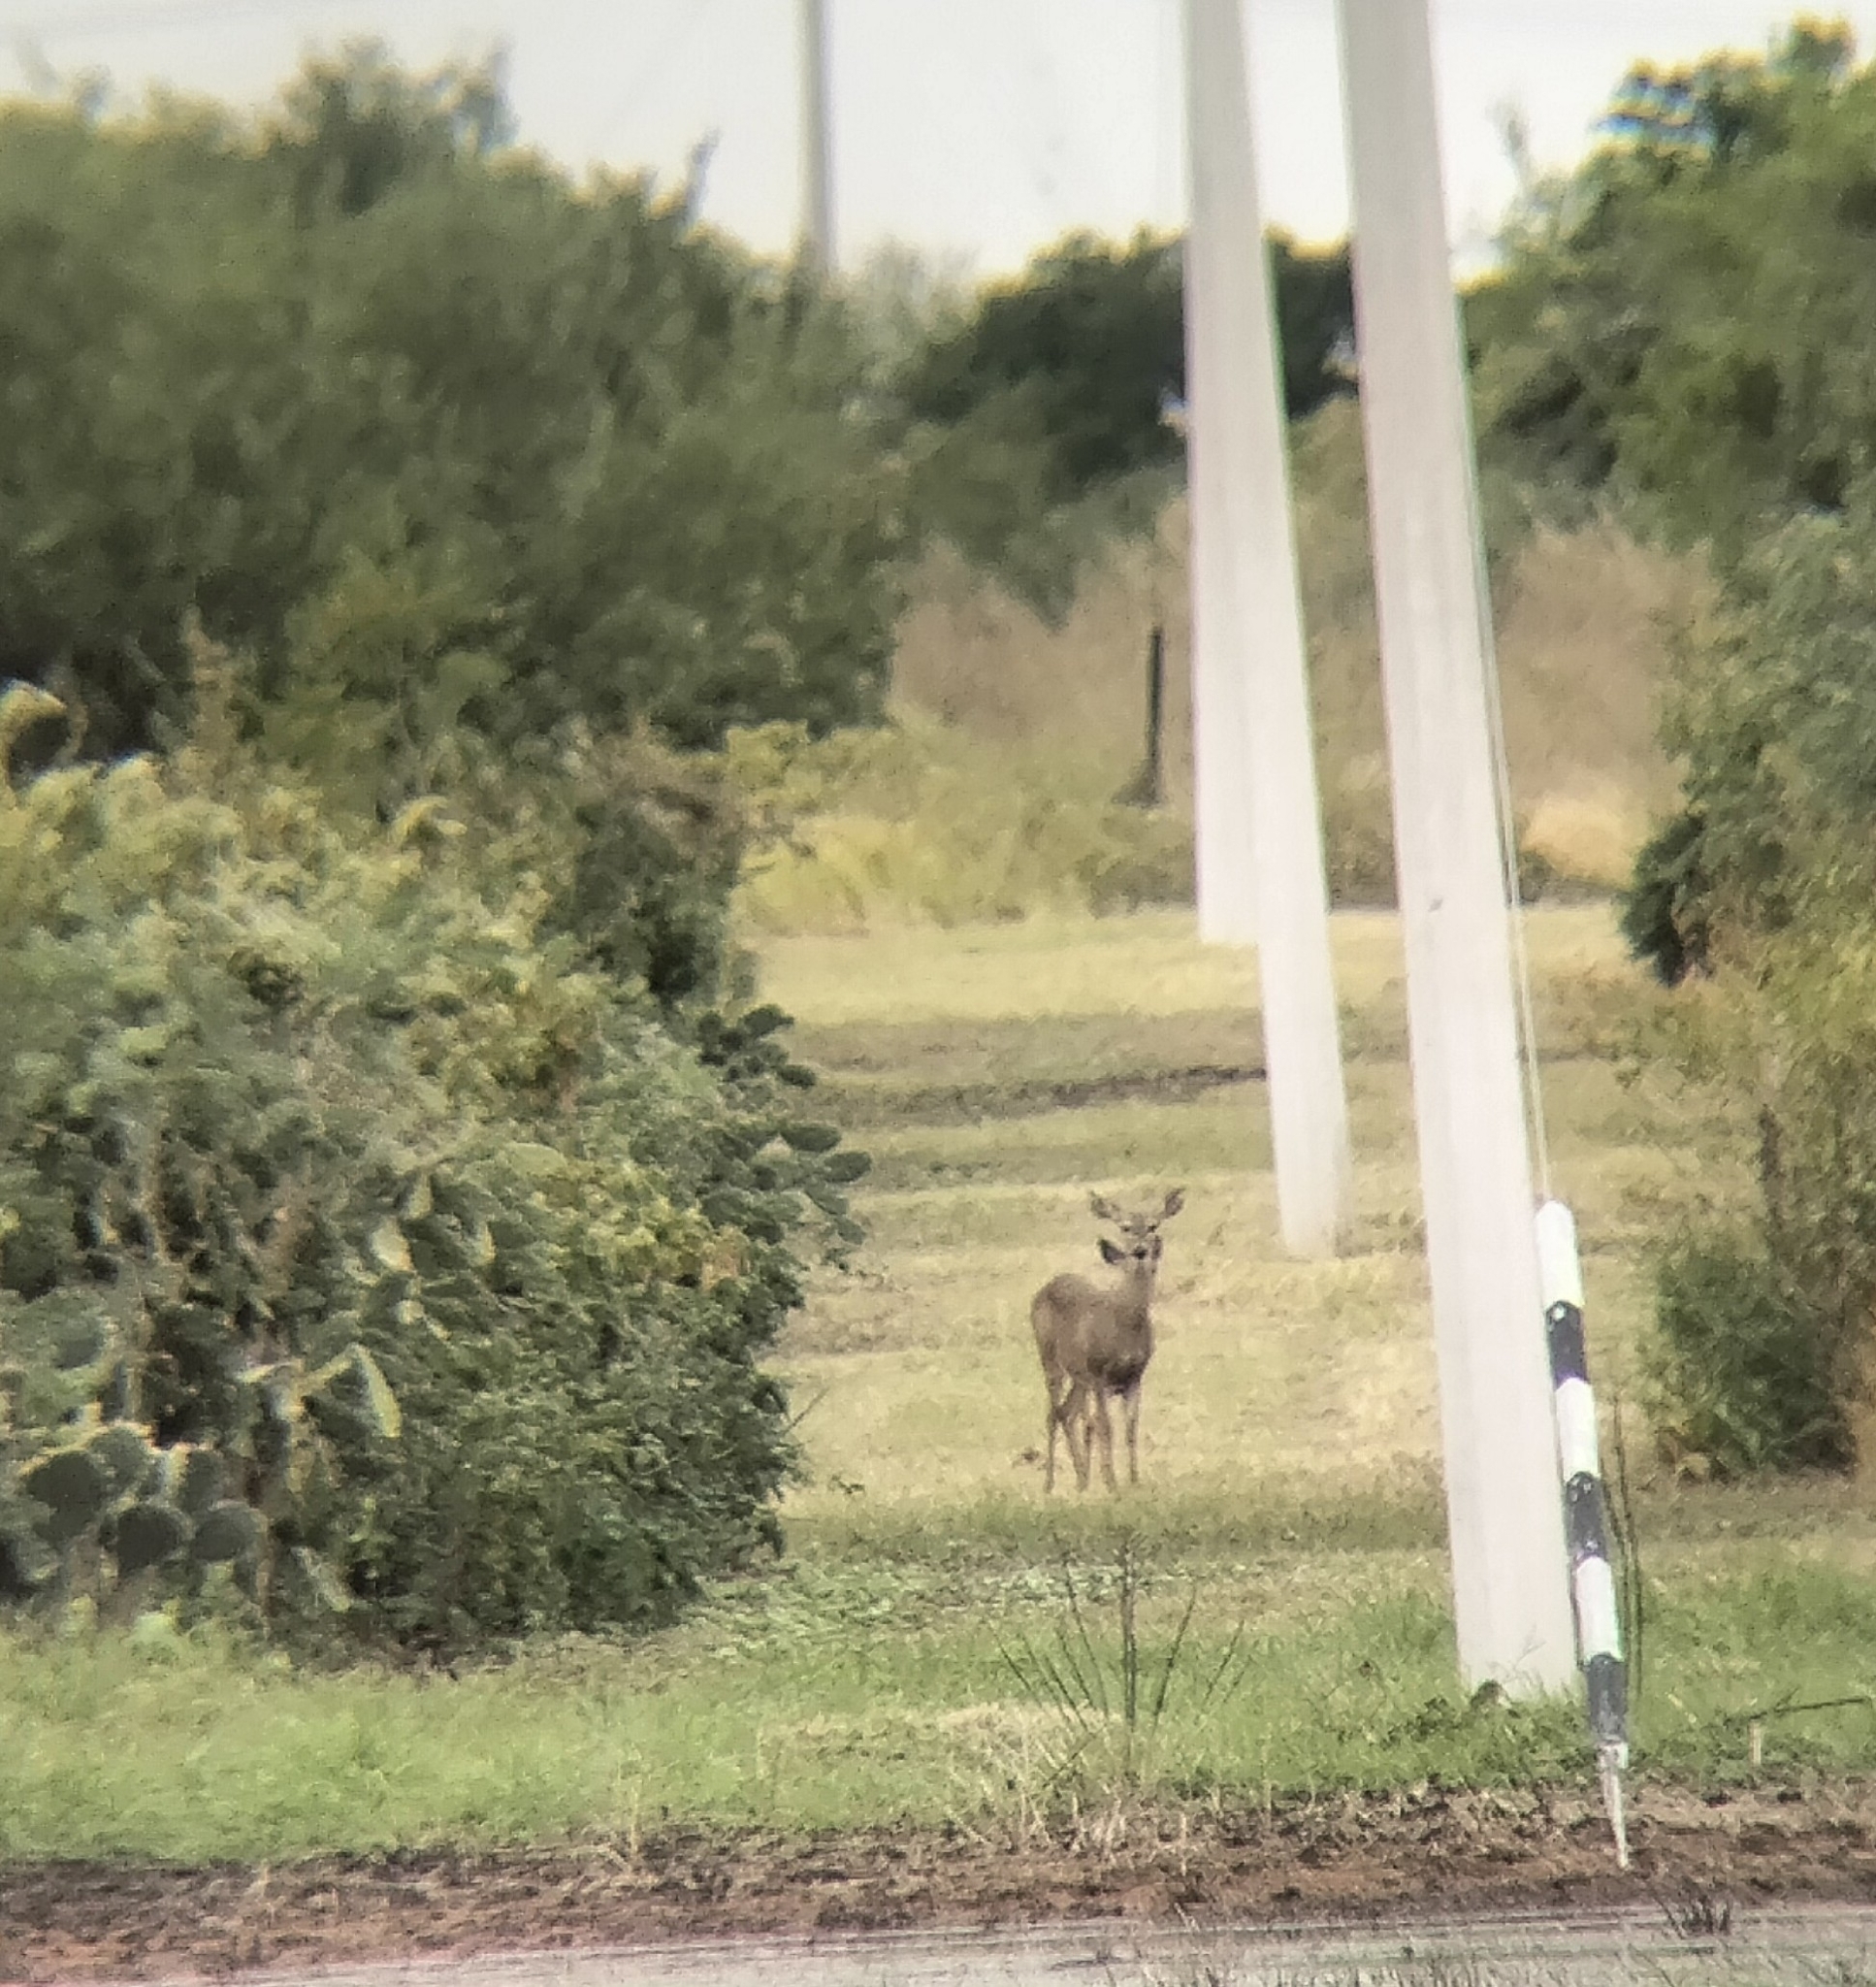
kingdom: Animalia
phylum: Chordata
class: Mammalia
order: Artiodactyla
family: Cervidae
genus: Odocoileus
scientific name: Odocoileus virginianus
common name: White-tailed deer
